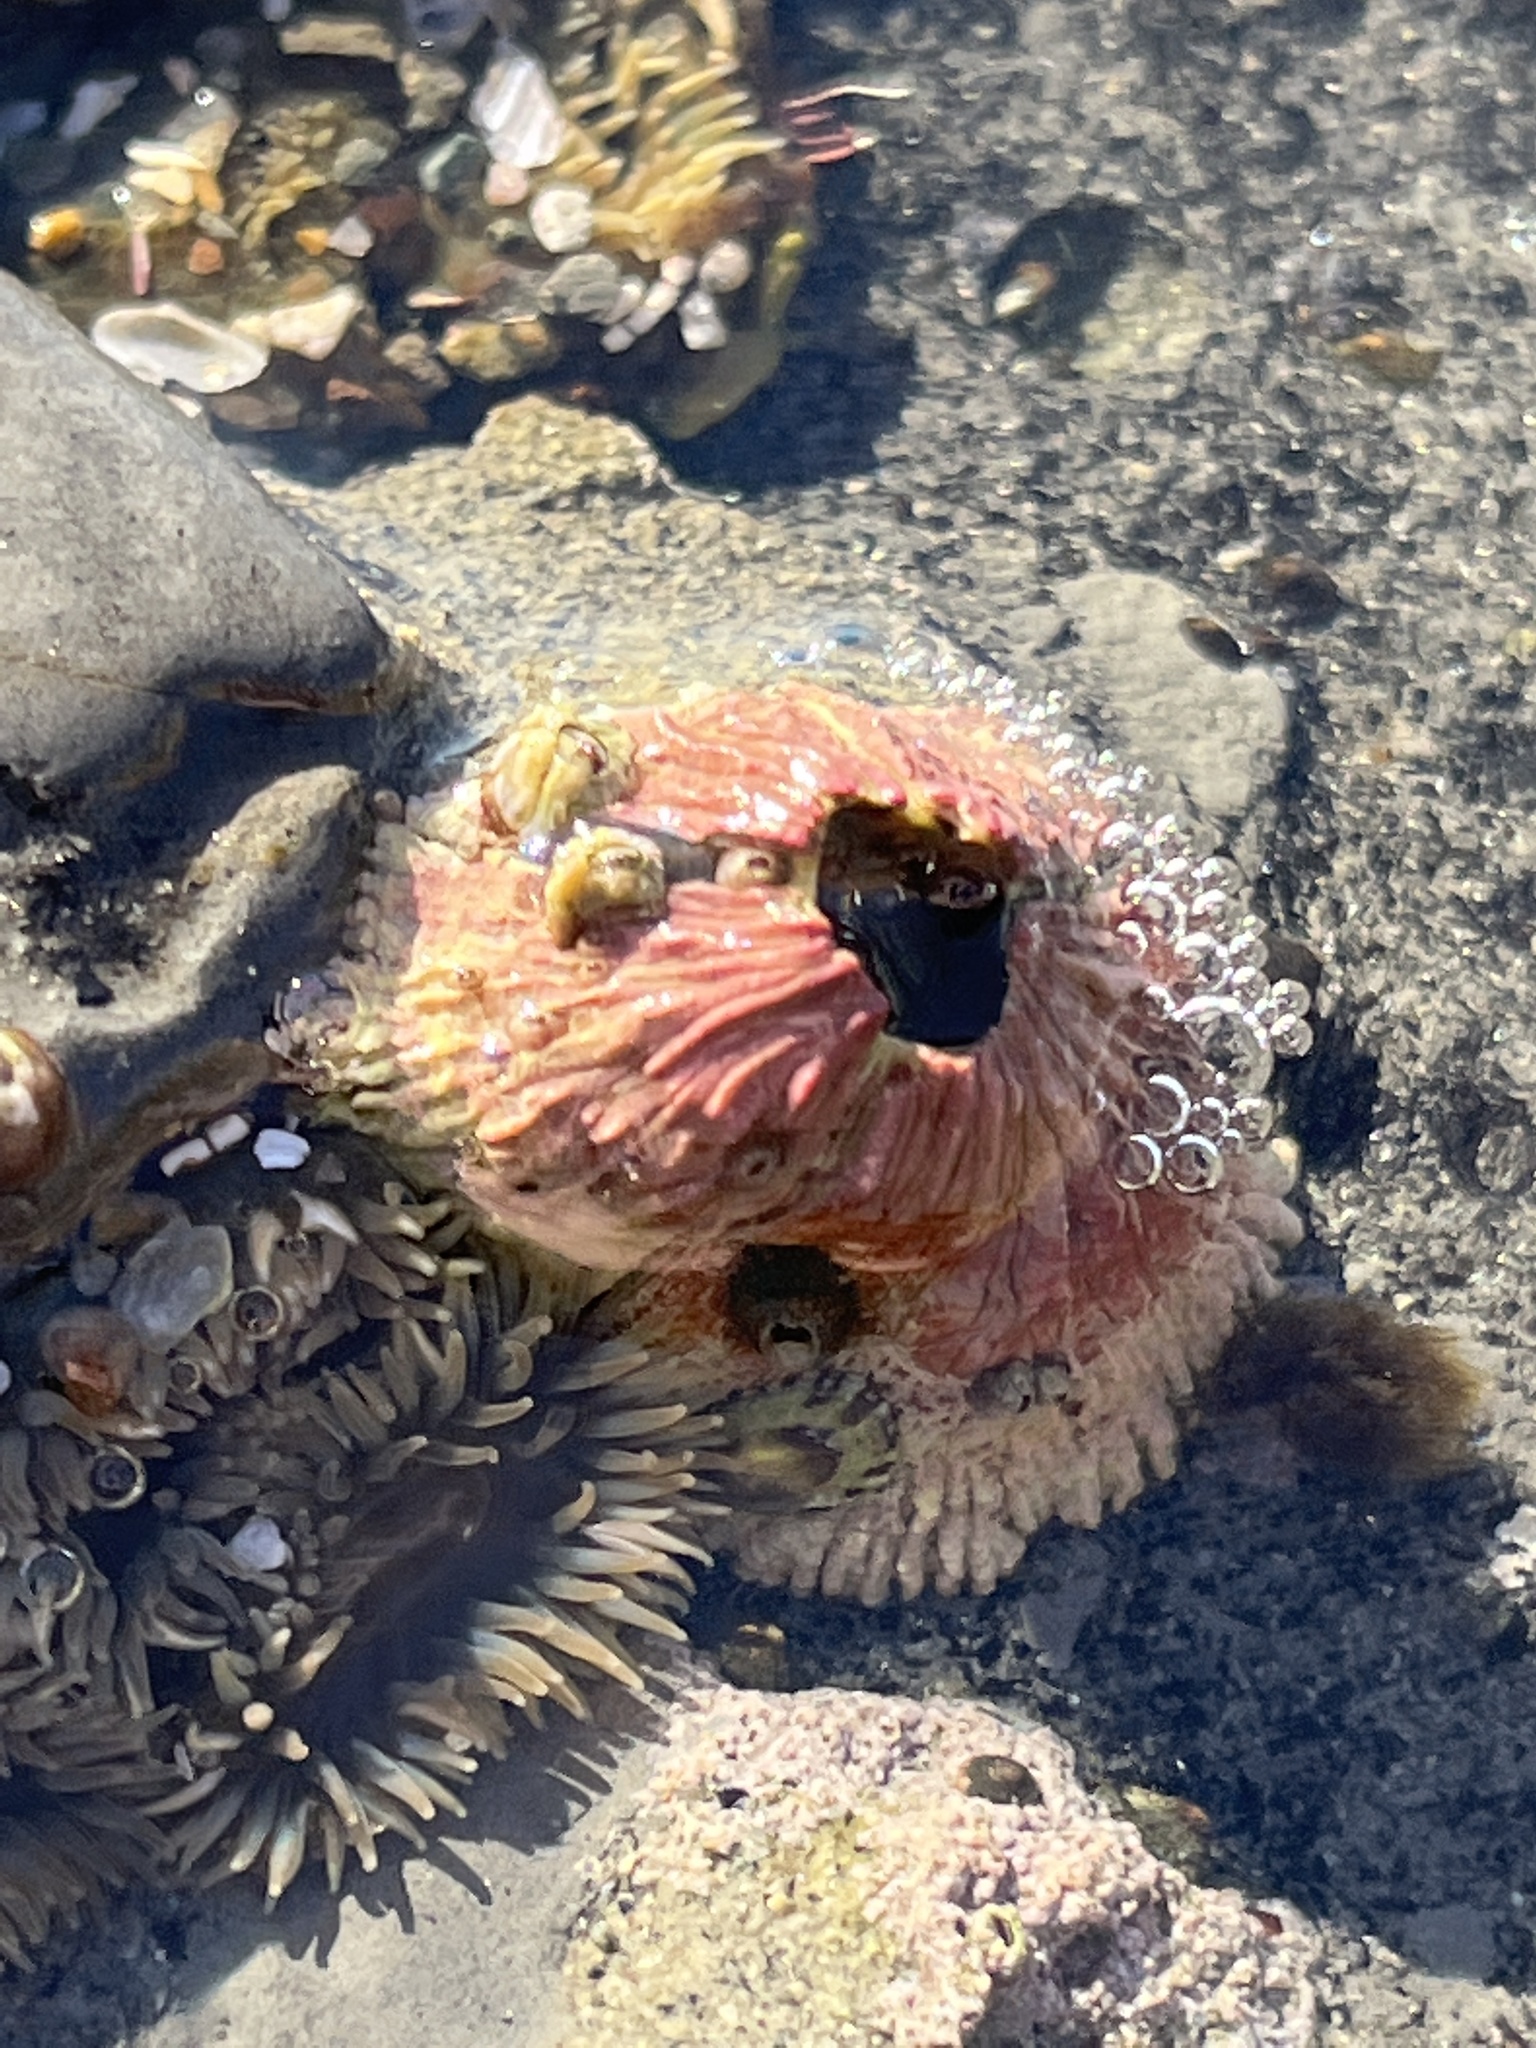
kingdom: Animalia
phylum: Arthropoda
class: Maxillopoda
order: Sessilia
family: Tetraclitidae
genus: Tetraclita
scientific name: Tetraclita rubescens
